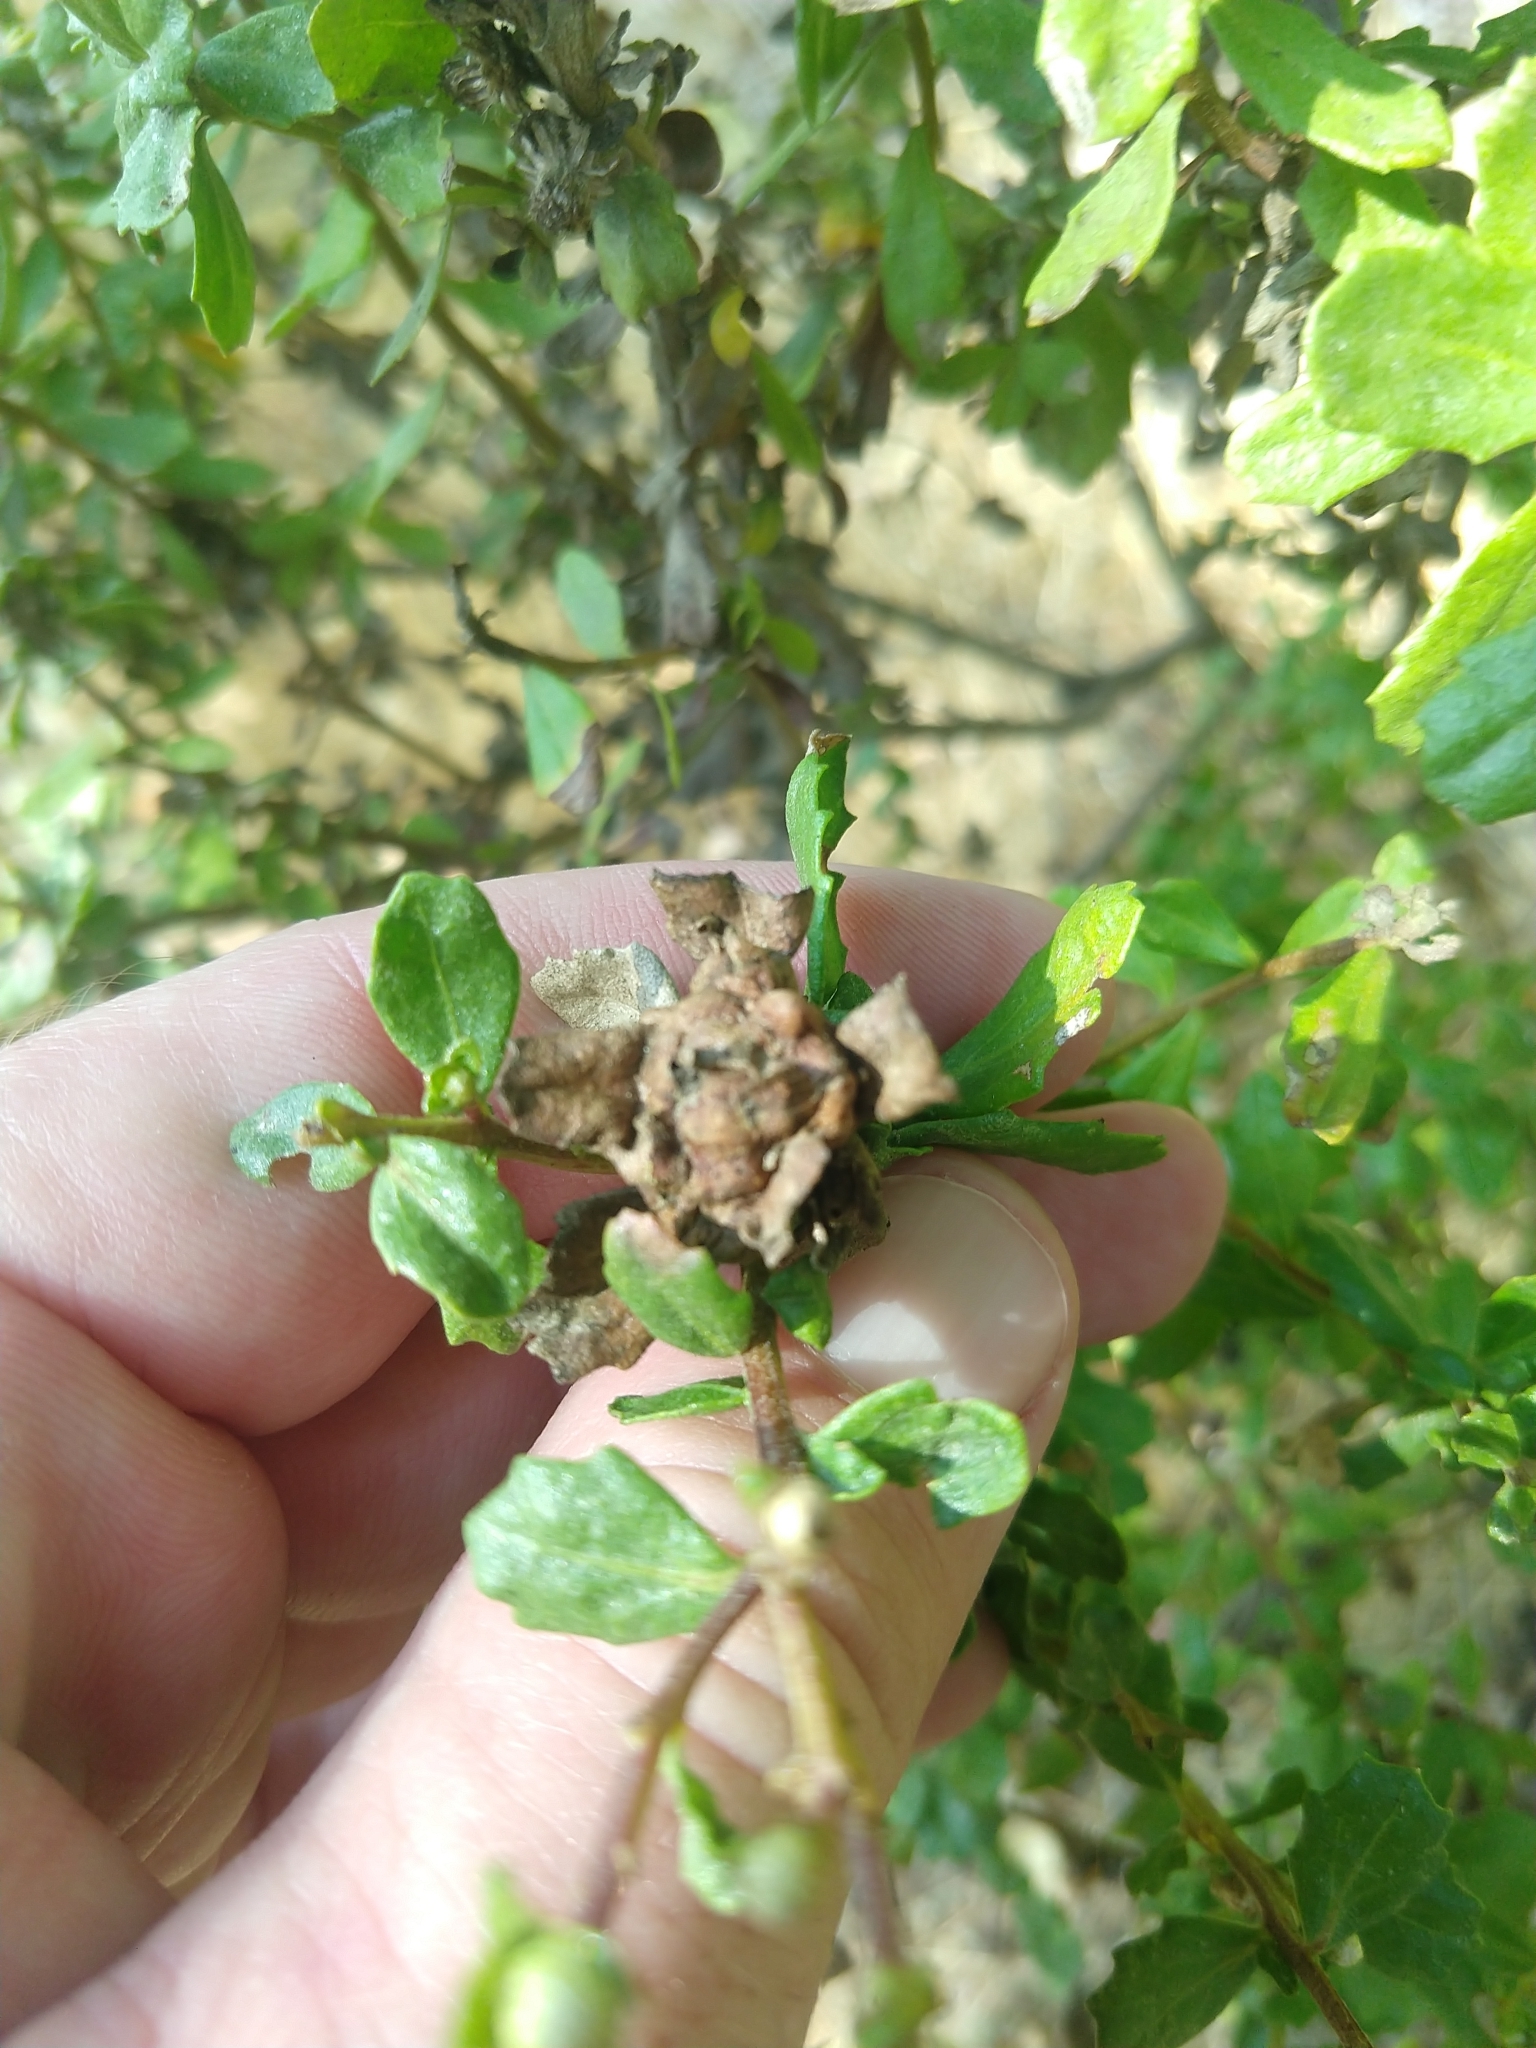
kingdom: Animalia
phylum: Arthropoda
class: Insecta
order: Diptera
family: Cecidomyiidae
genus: Rhopalomyia
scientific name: Rhopalomyia californica
